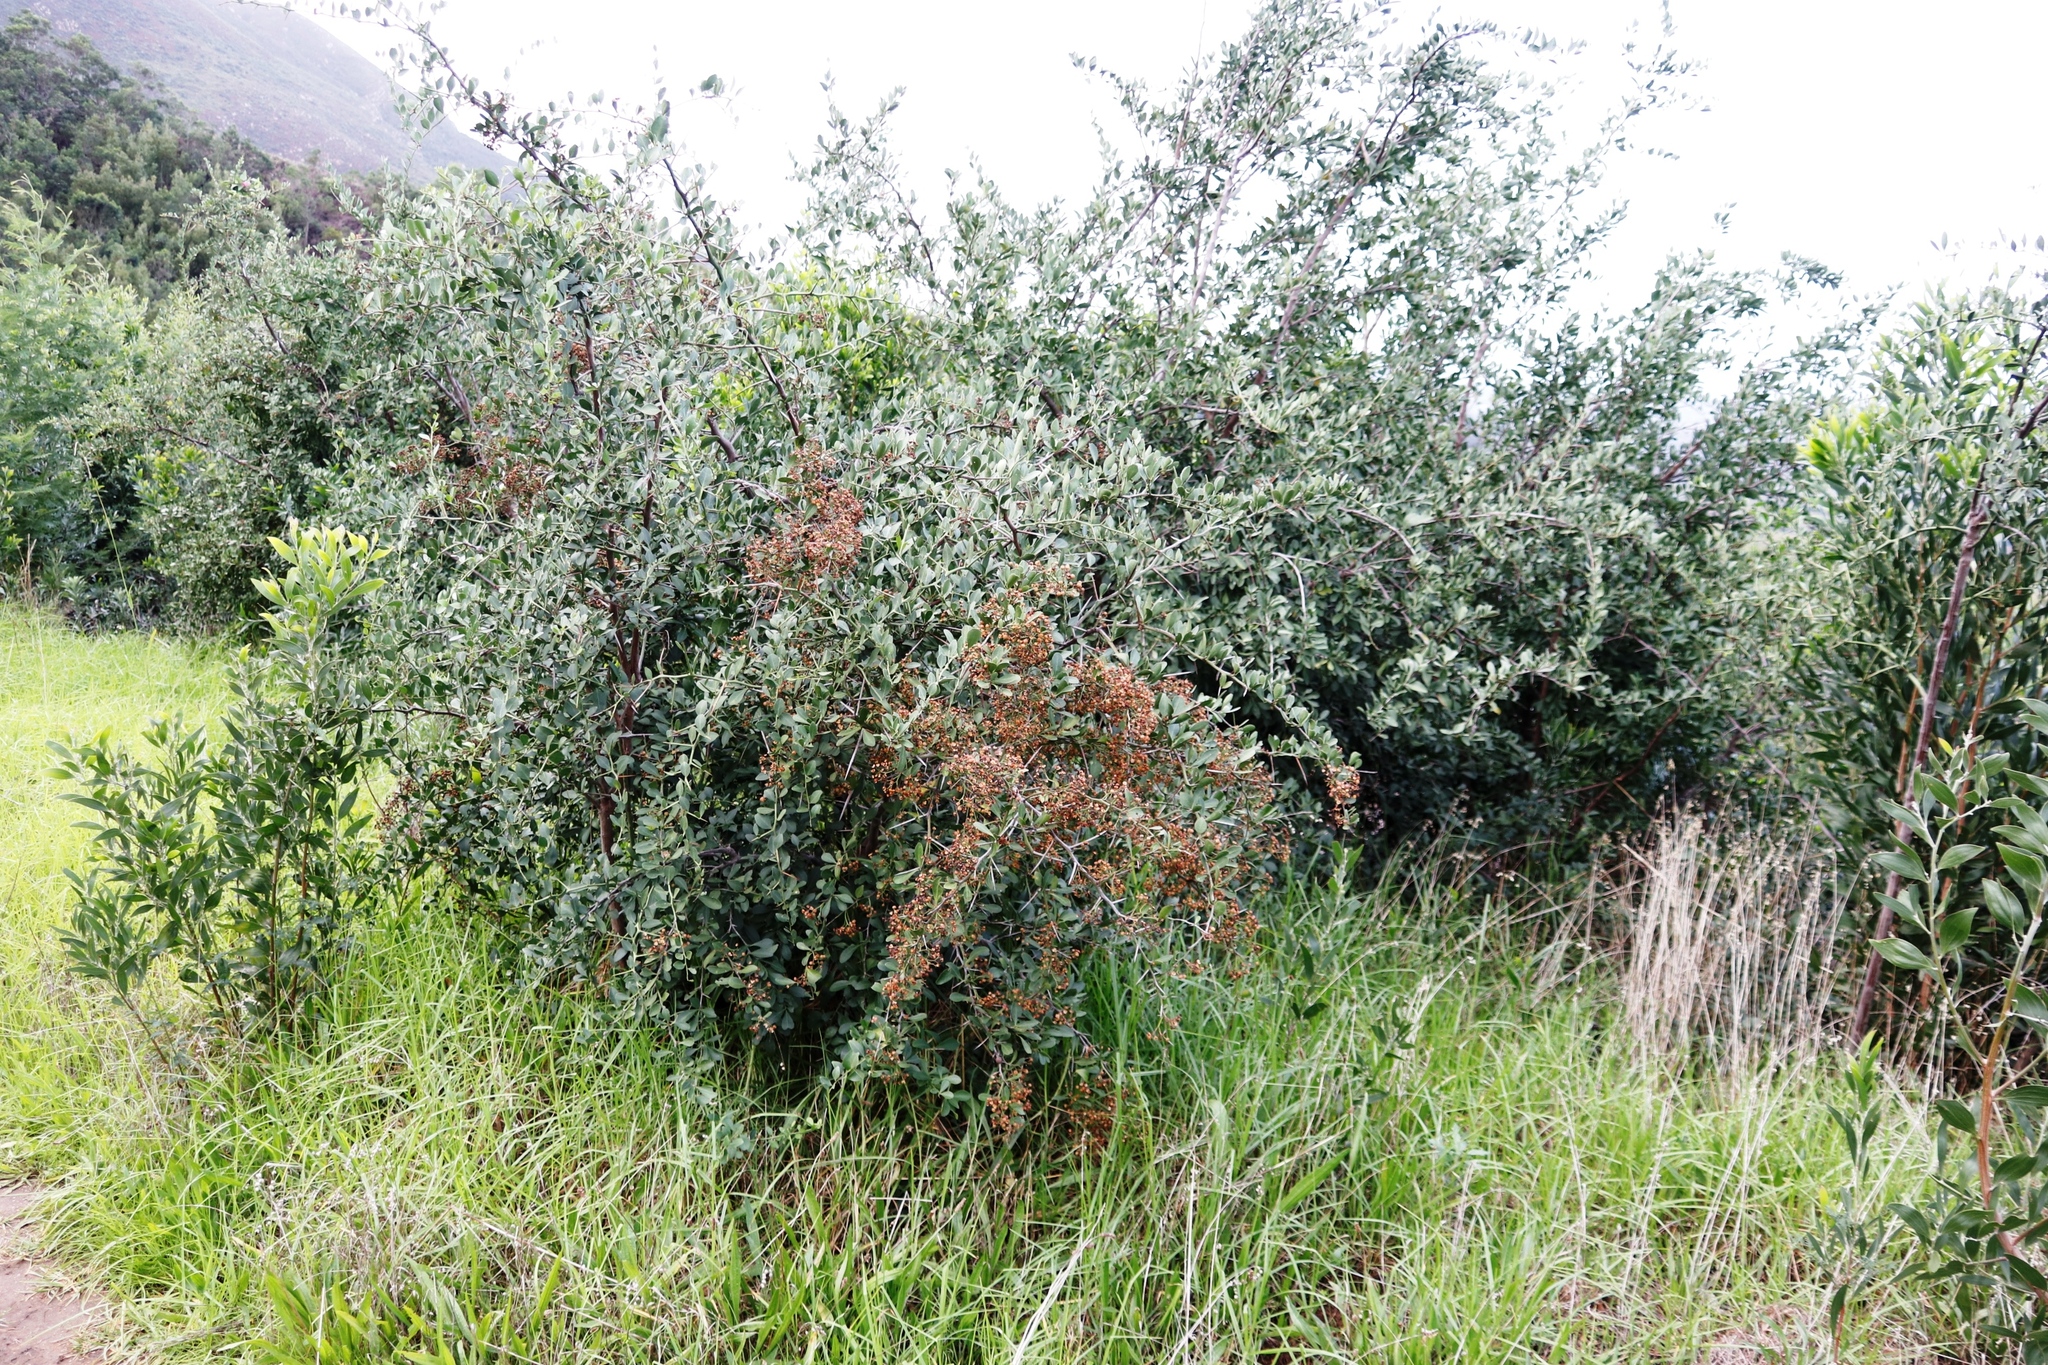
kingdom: Plantae
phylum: Tracheophyta
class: Magnoliopsida
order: Celastrales
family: Celastraceae
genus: Gymnosporia
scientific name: Gymnosporia buxifolia
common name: Common spike-thorn
